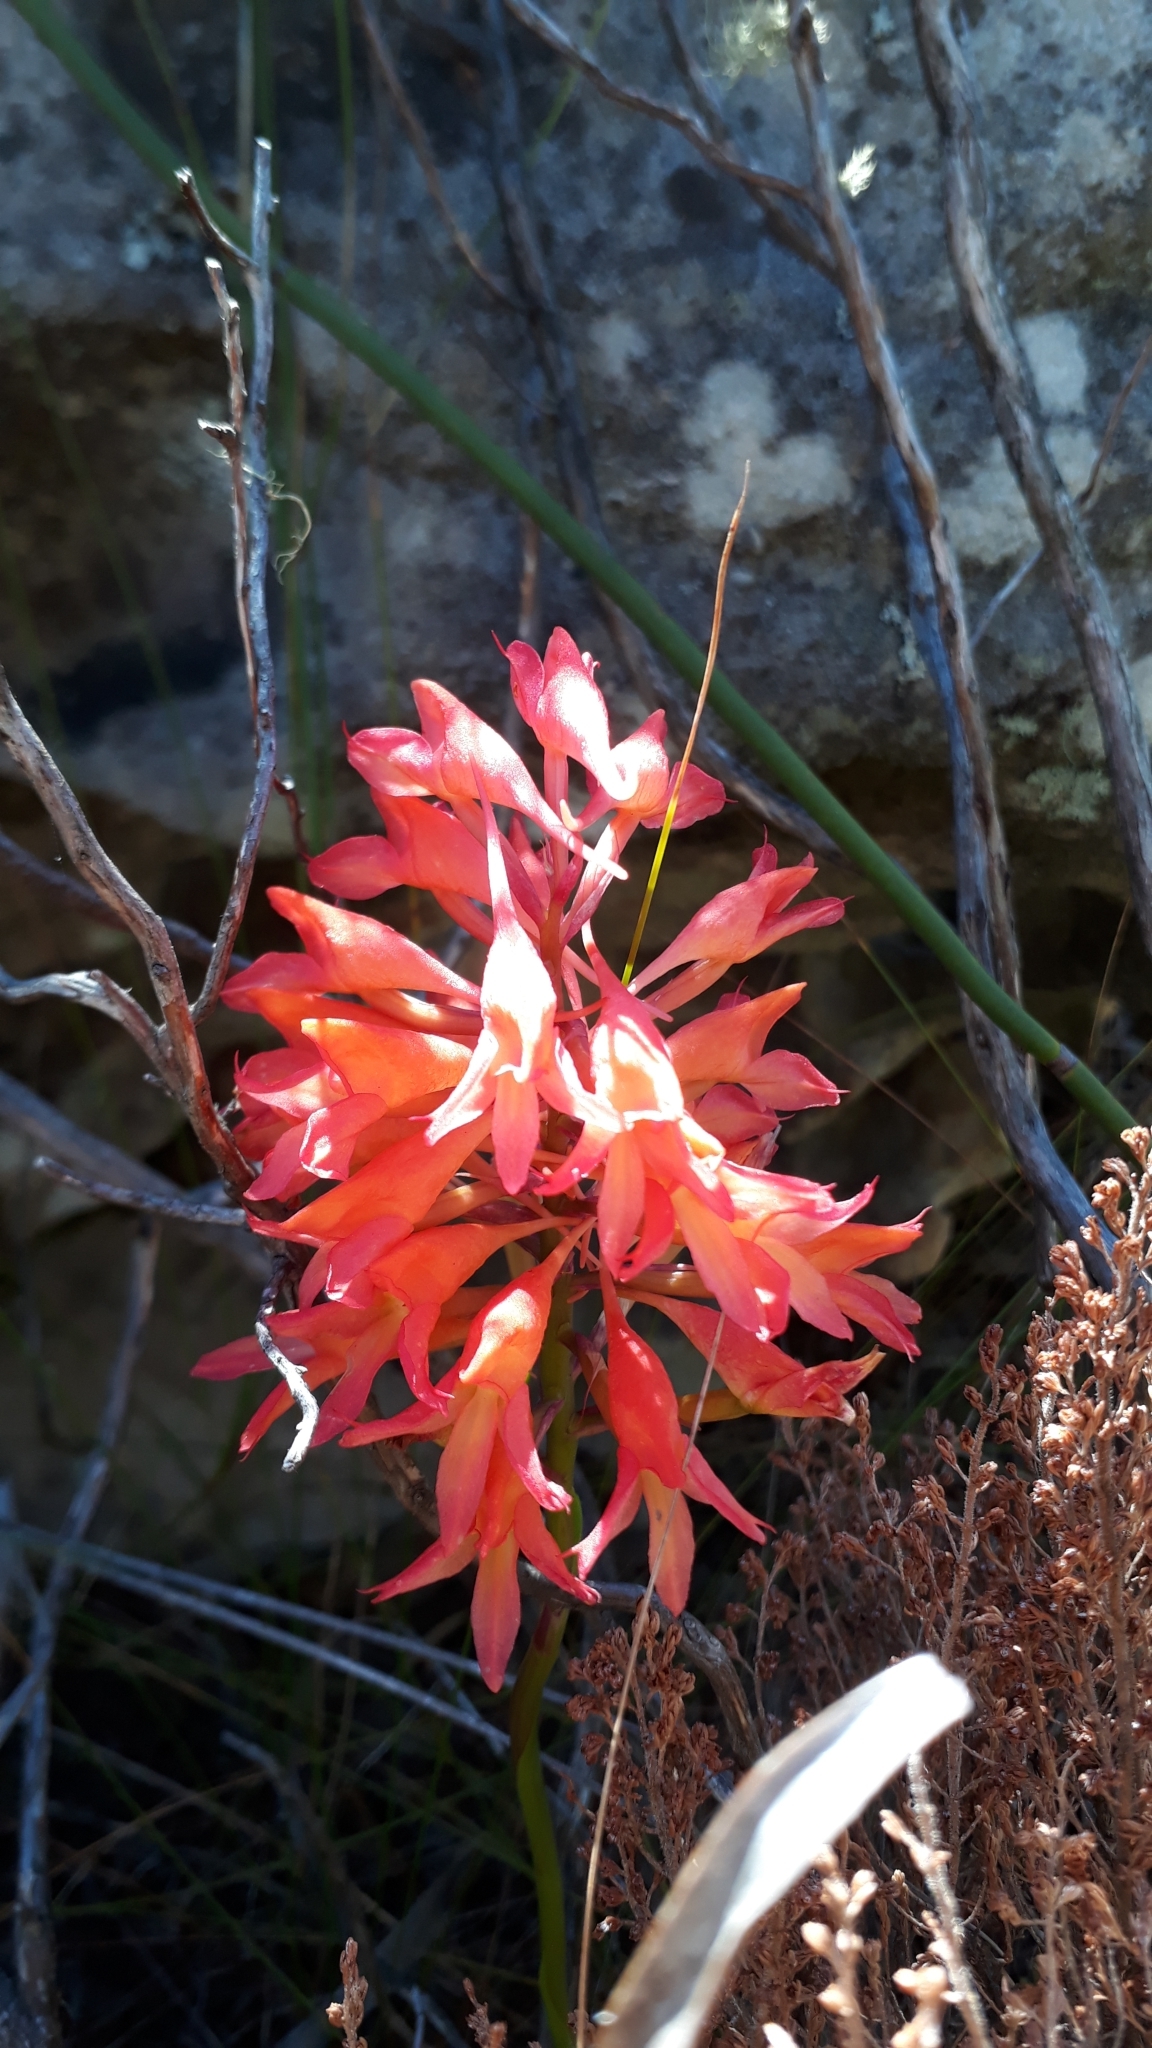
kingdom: Plantae
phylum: Tracheophyta
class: Liliopsida
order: Asparagales
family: Orchidaceae
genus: Disa
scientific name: Disa ferruginea
